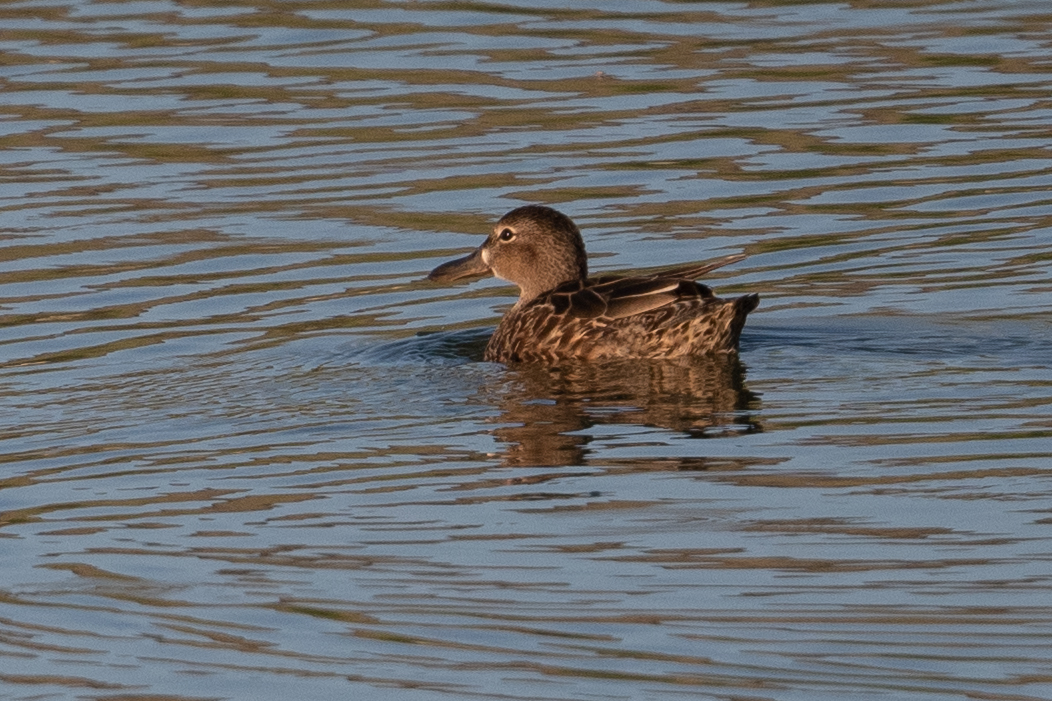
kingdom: Animalia
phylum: Chordata
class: Aves
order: Anseriformes
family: Anatidae
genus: Spatula
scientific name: Spatula cyanoptera
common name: Cinnamon teal
